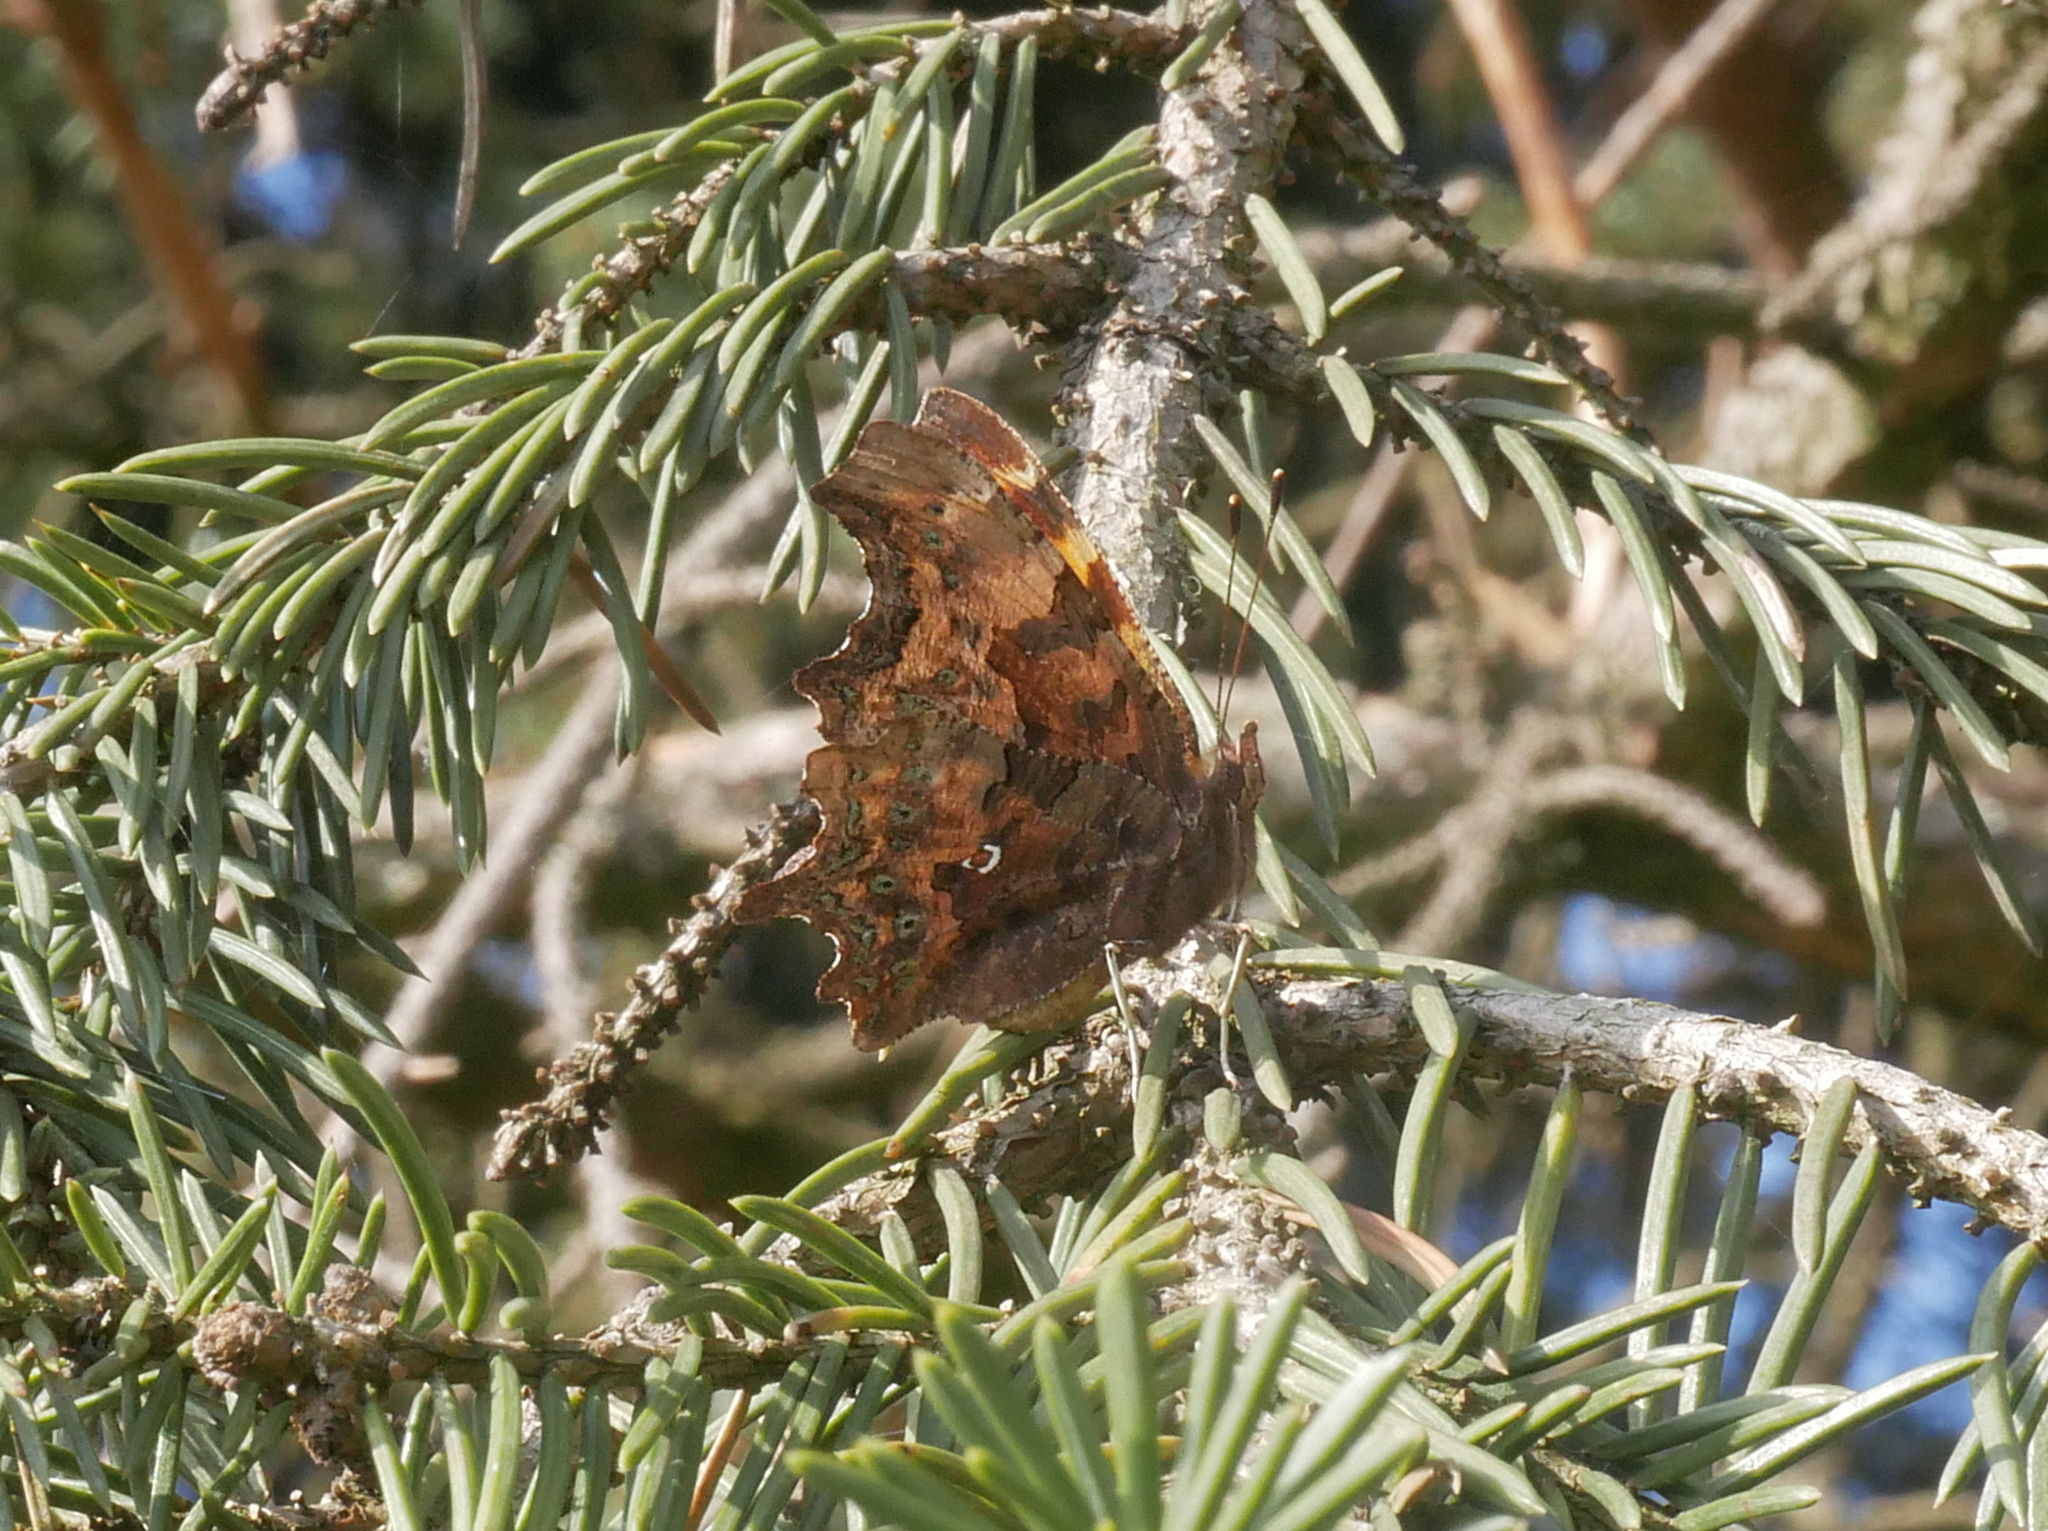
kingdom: Animalia
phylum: Arthropoda
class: Insecta
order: Lepidoptera
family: Nymphalidae
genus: Polygonia
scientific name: Polygonia c-album
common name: Comma
